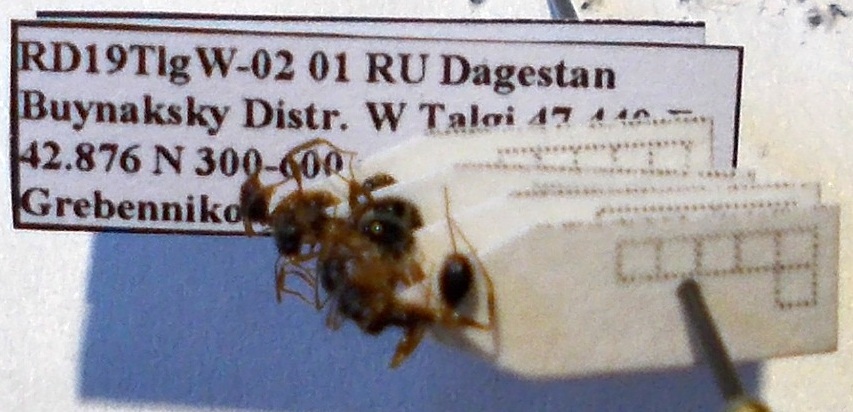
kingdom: Animalia
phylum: Arthropoda
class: Insecta
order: Hymenoptera
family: Formicidae
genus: Aphaenogaster
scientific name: Aphaenogaster
